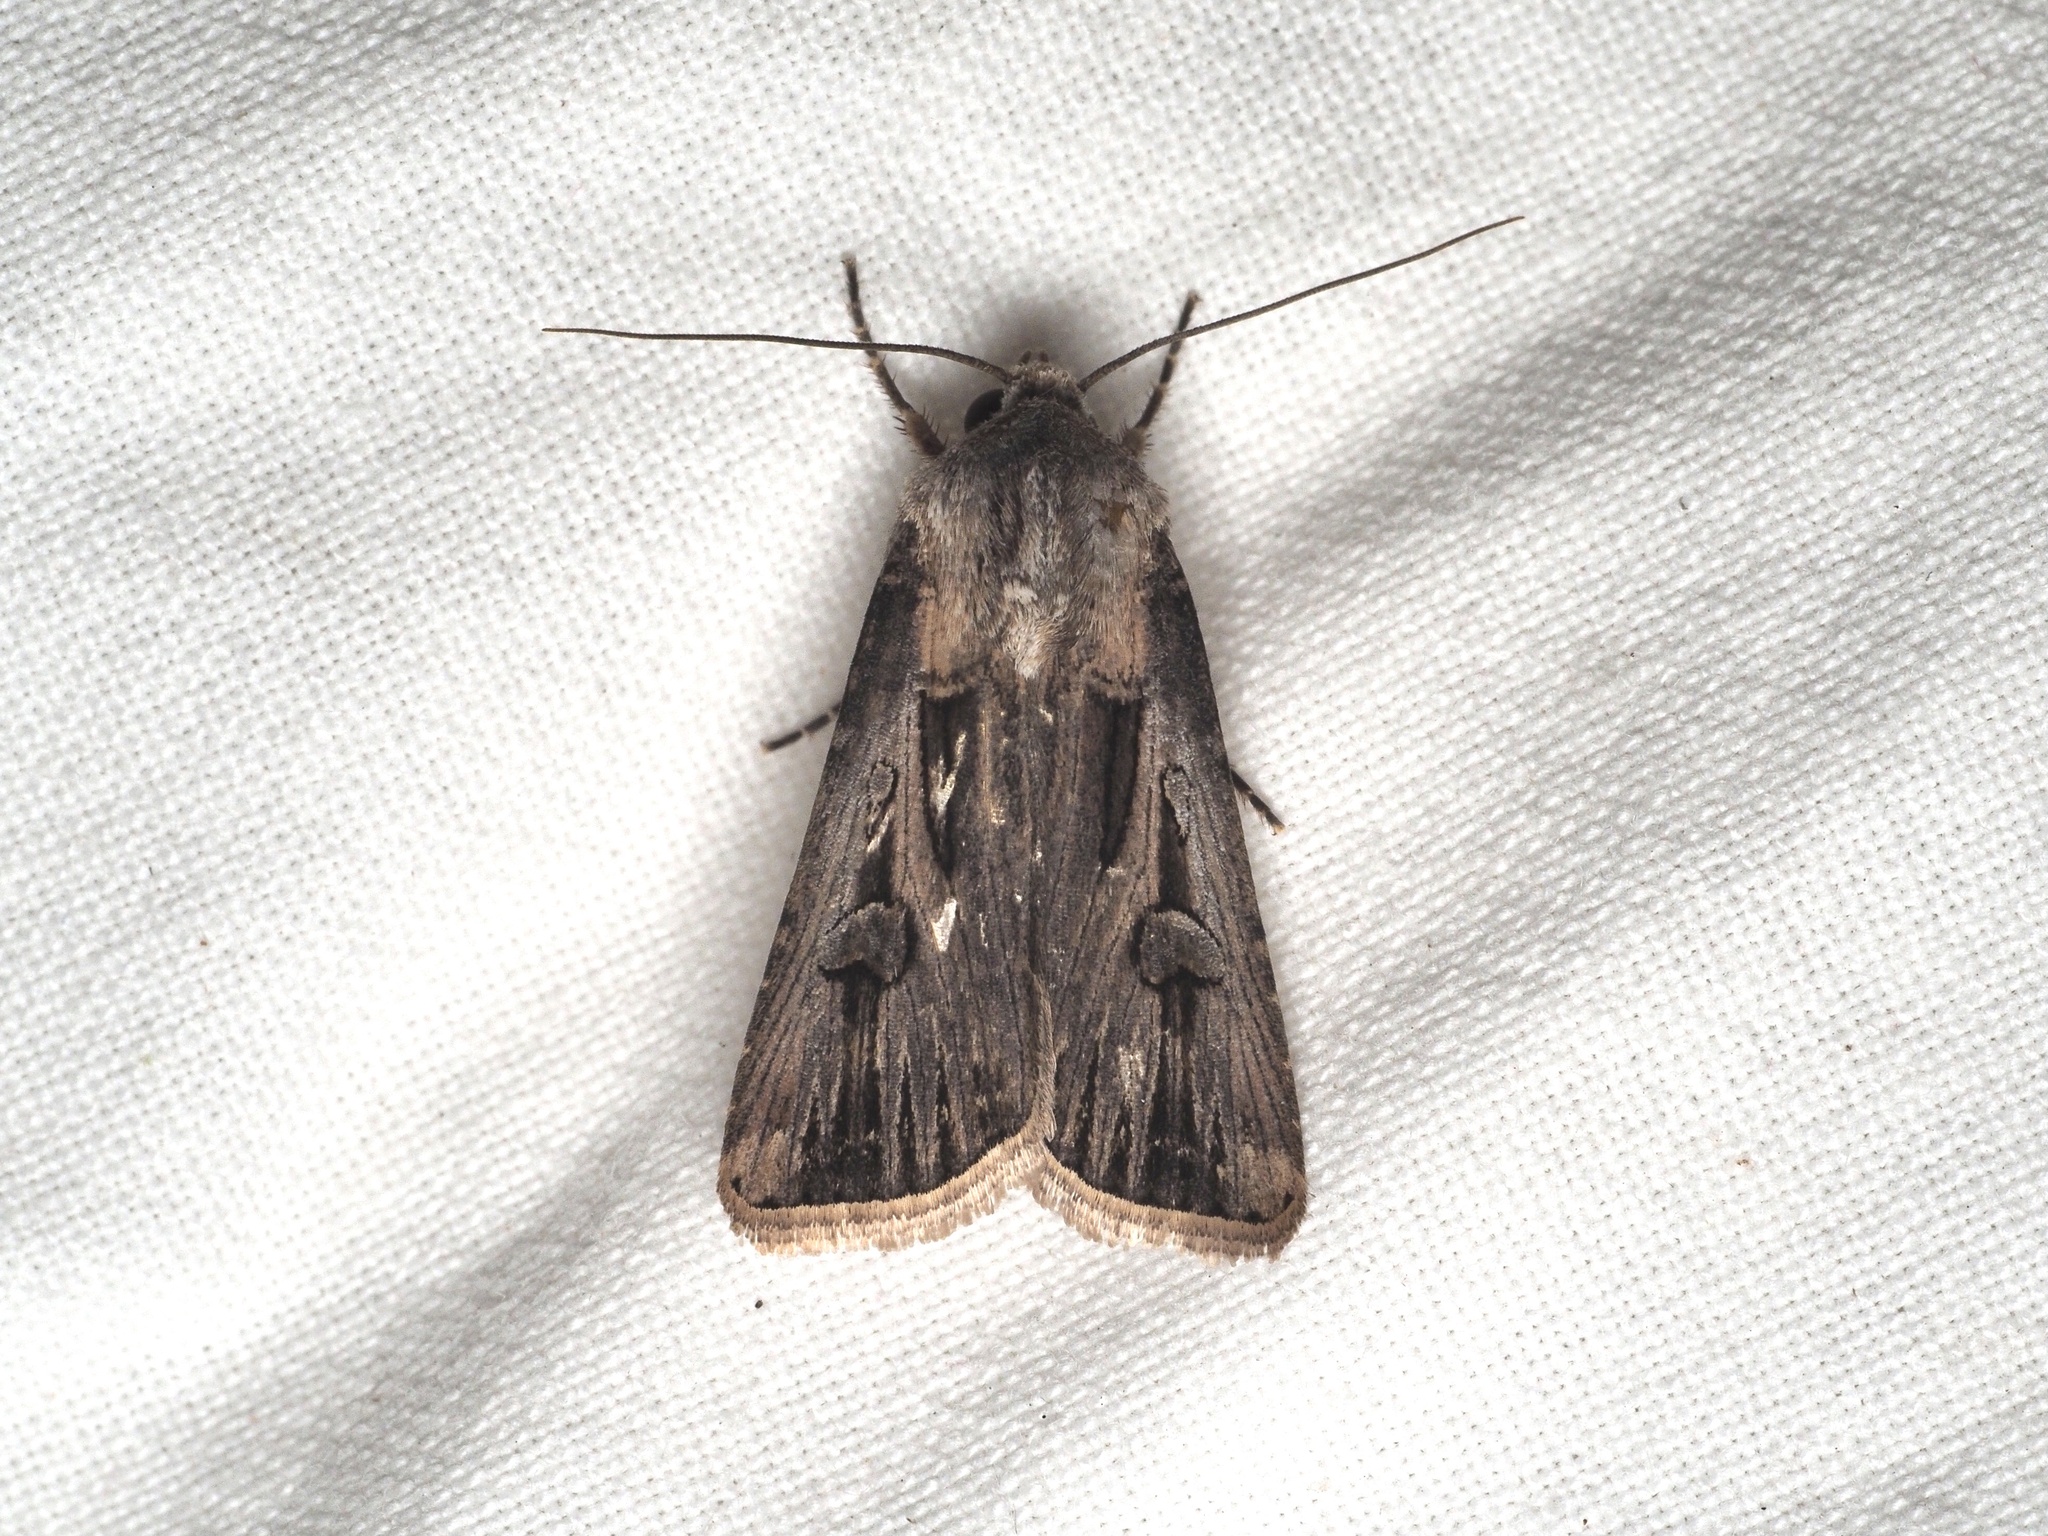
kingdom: Animalia
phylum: Arthropoda
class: Insecta
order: Lepidoptera
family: Noctuidae
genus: Agrotis
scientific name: Agrotis
